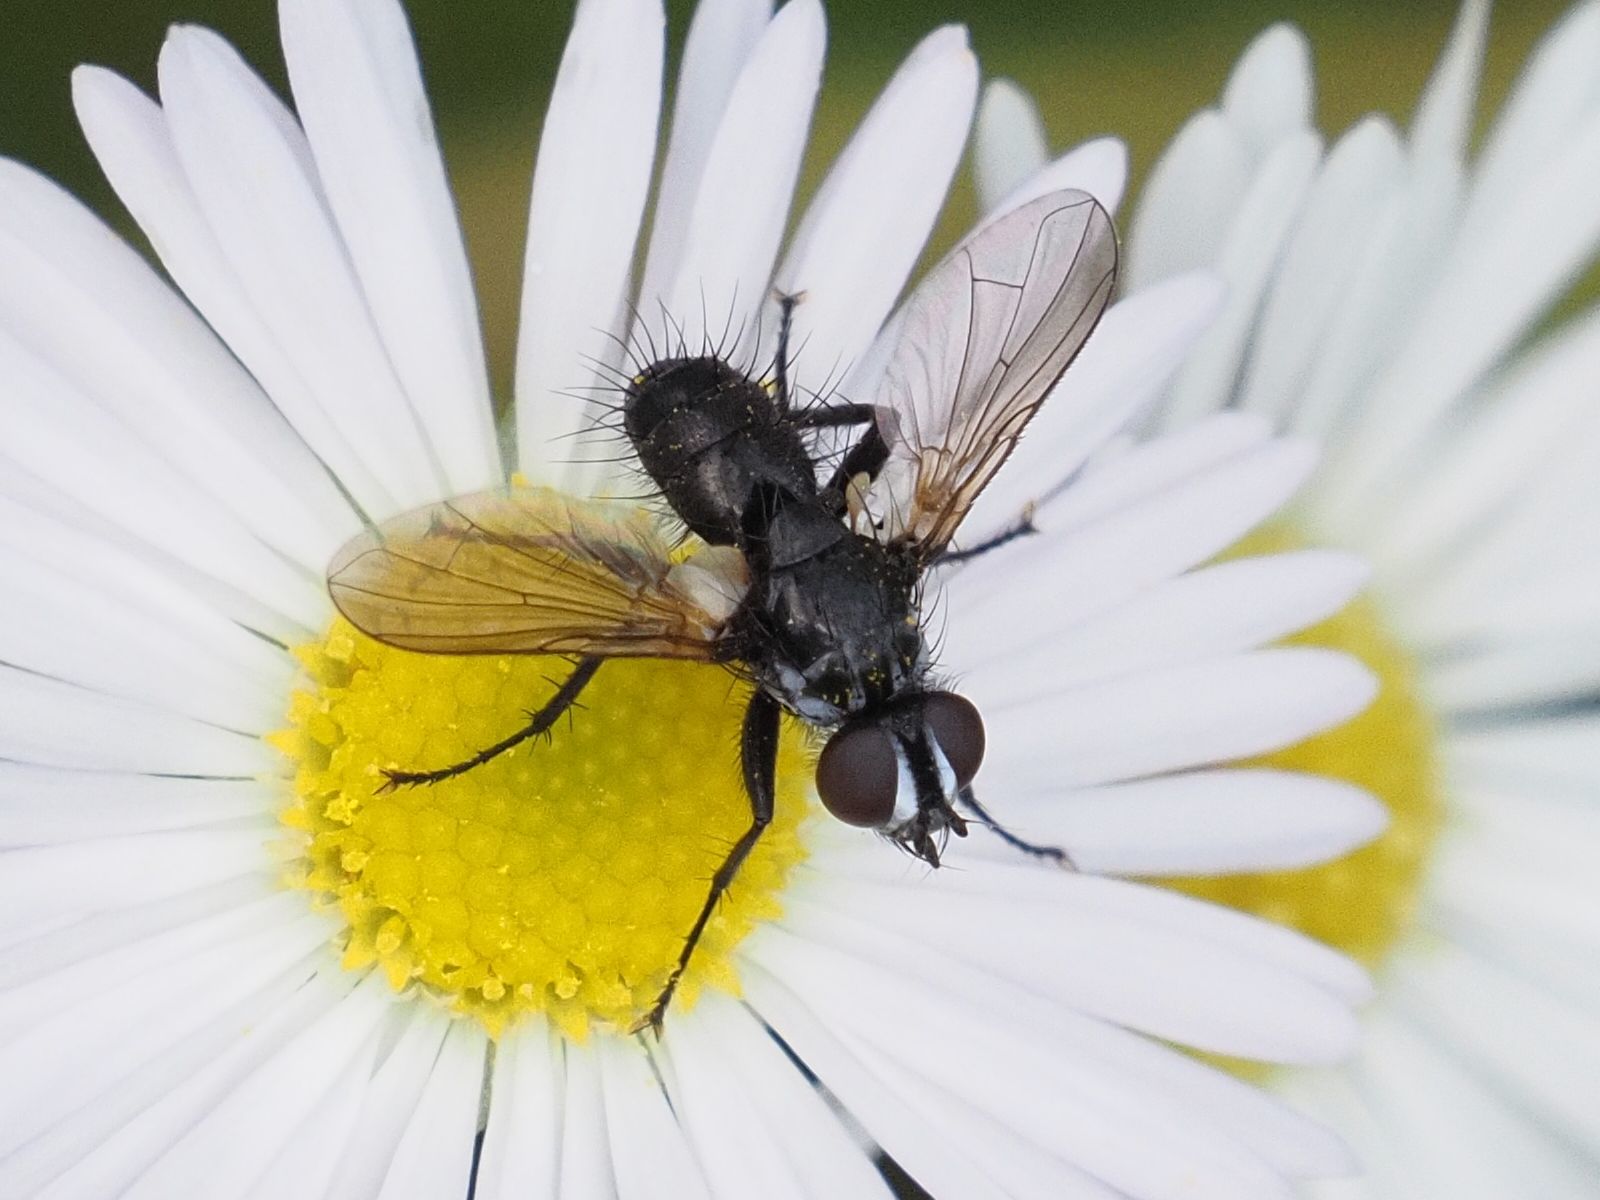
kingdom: Animalia
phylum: Arthropoda
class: Insecta
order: Diptera
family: Tachinidae
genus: Phania
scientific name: Phania funesta
